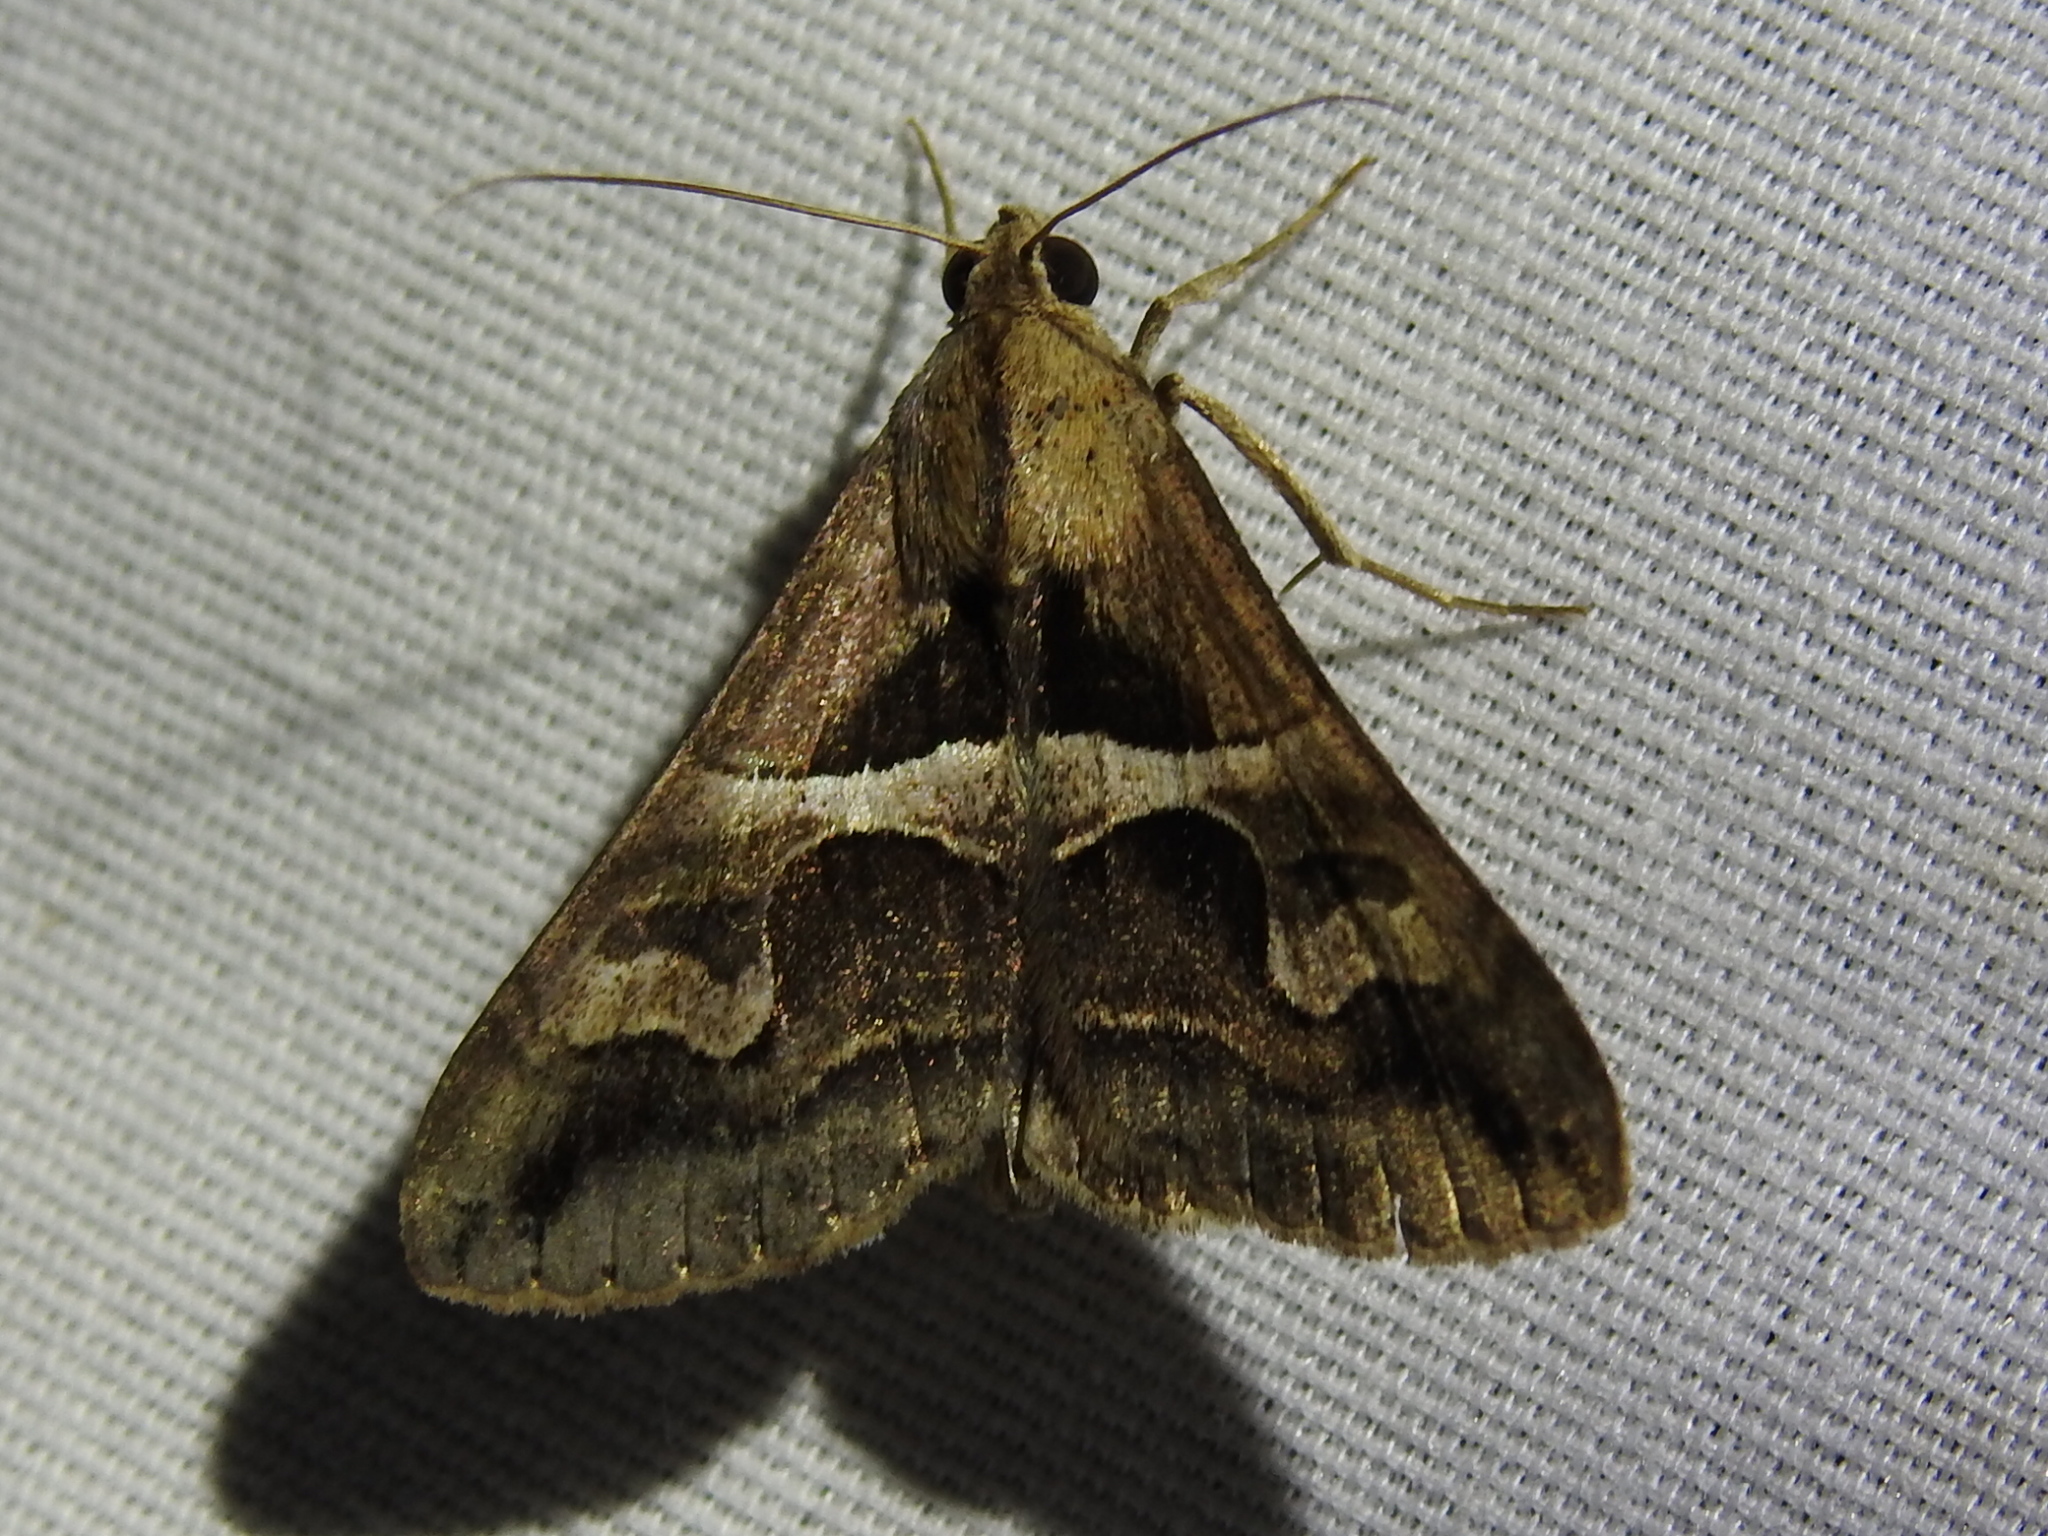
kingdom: Animalia
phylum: Arthropoda
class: Insecta
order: Lepidoptera
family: Erebidae
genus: Melipotis
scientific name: Melipotis cellaris
